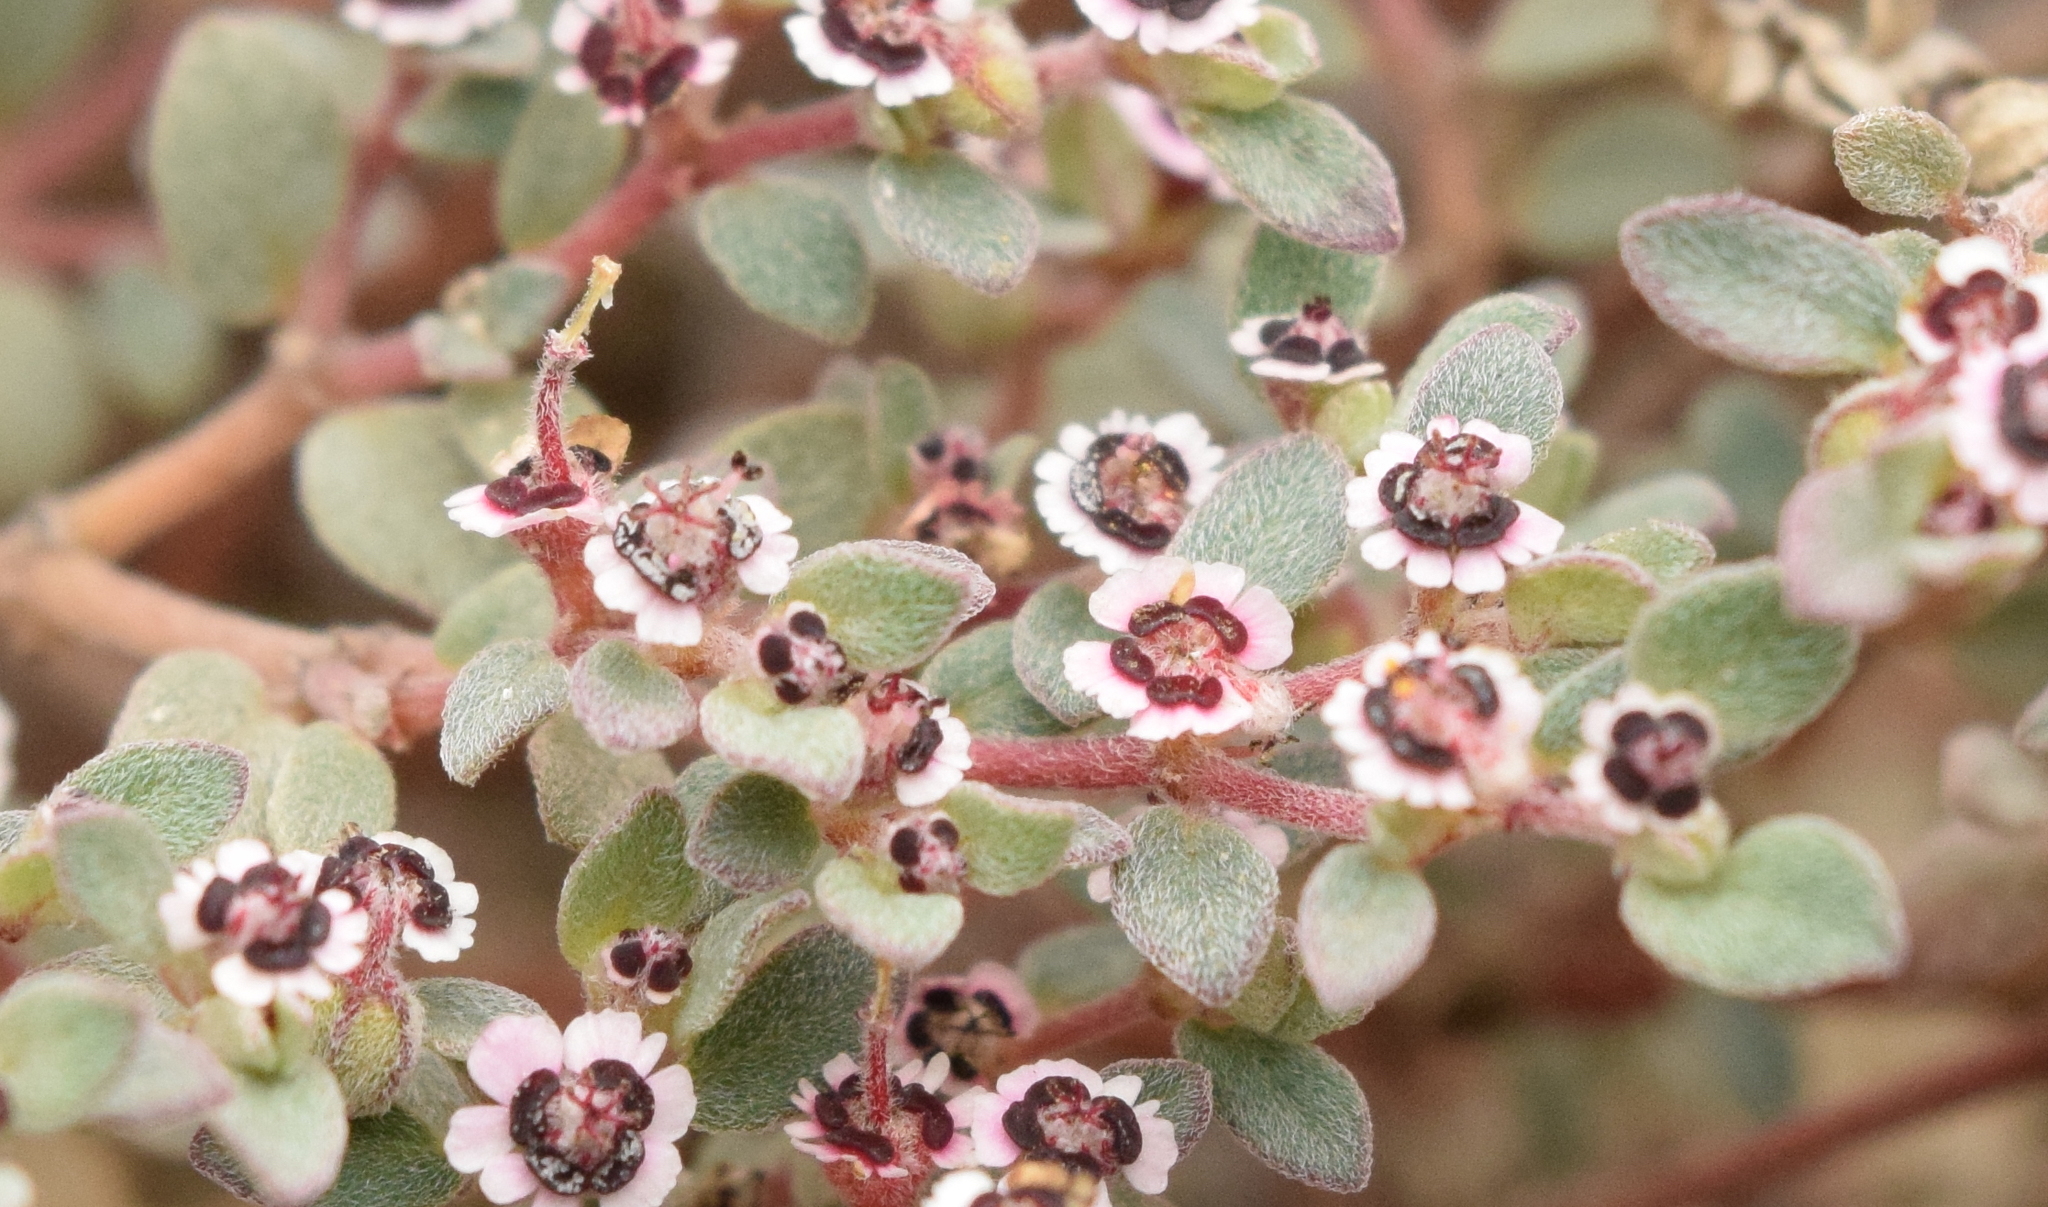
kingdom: Plantae
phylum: Tracheophyta
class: Magnoliopsida
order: Malpighiales
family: Euphorbiaceae
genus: Euphorbia
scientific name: Euphorbia melanadenia
